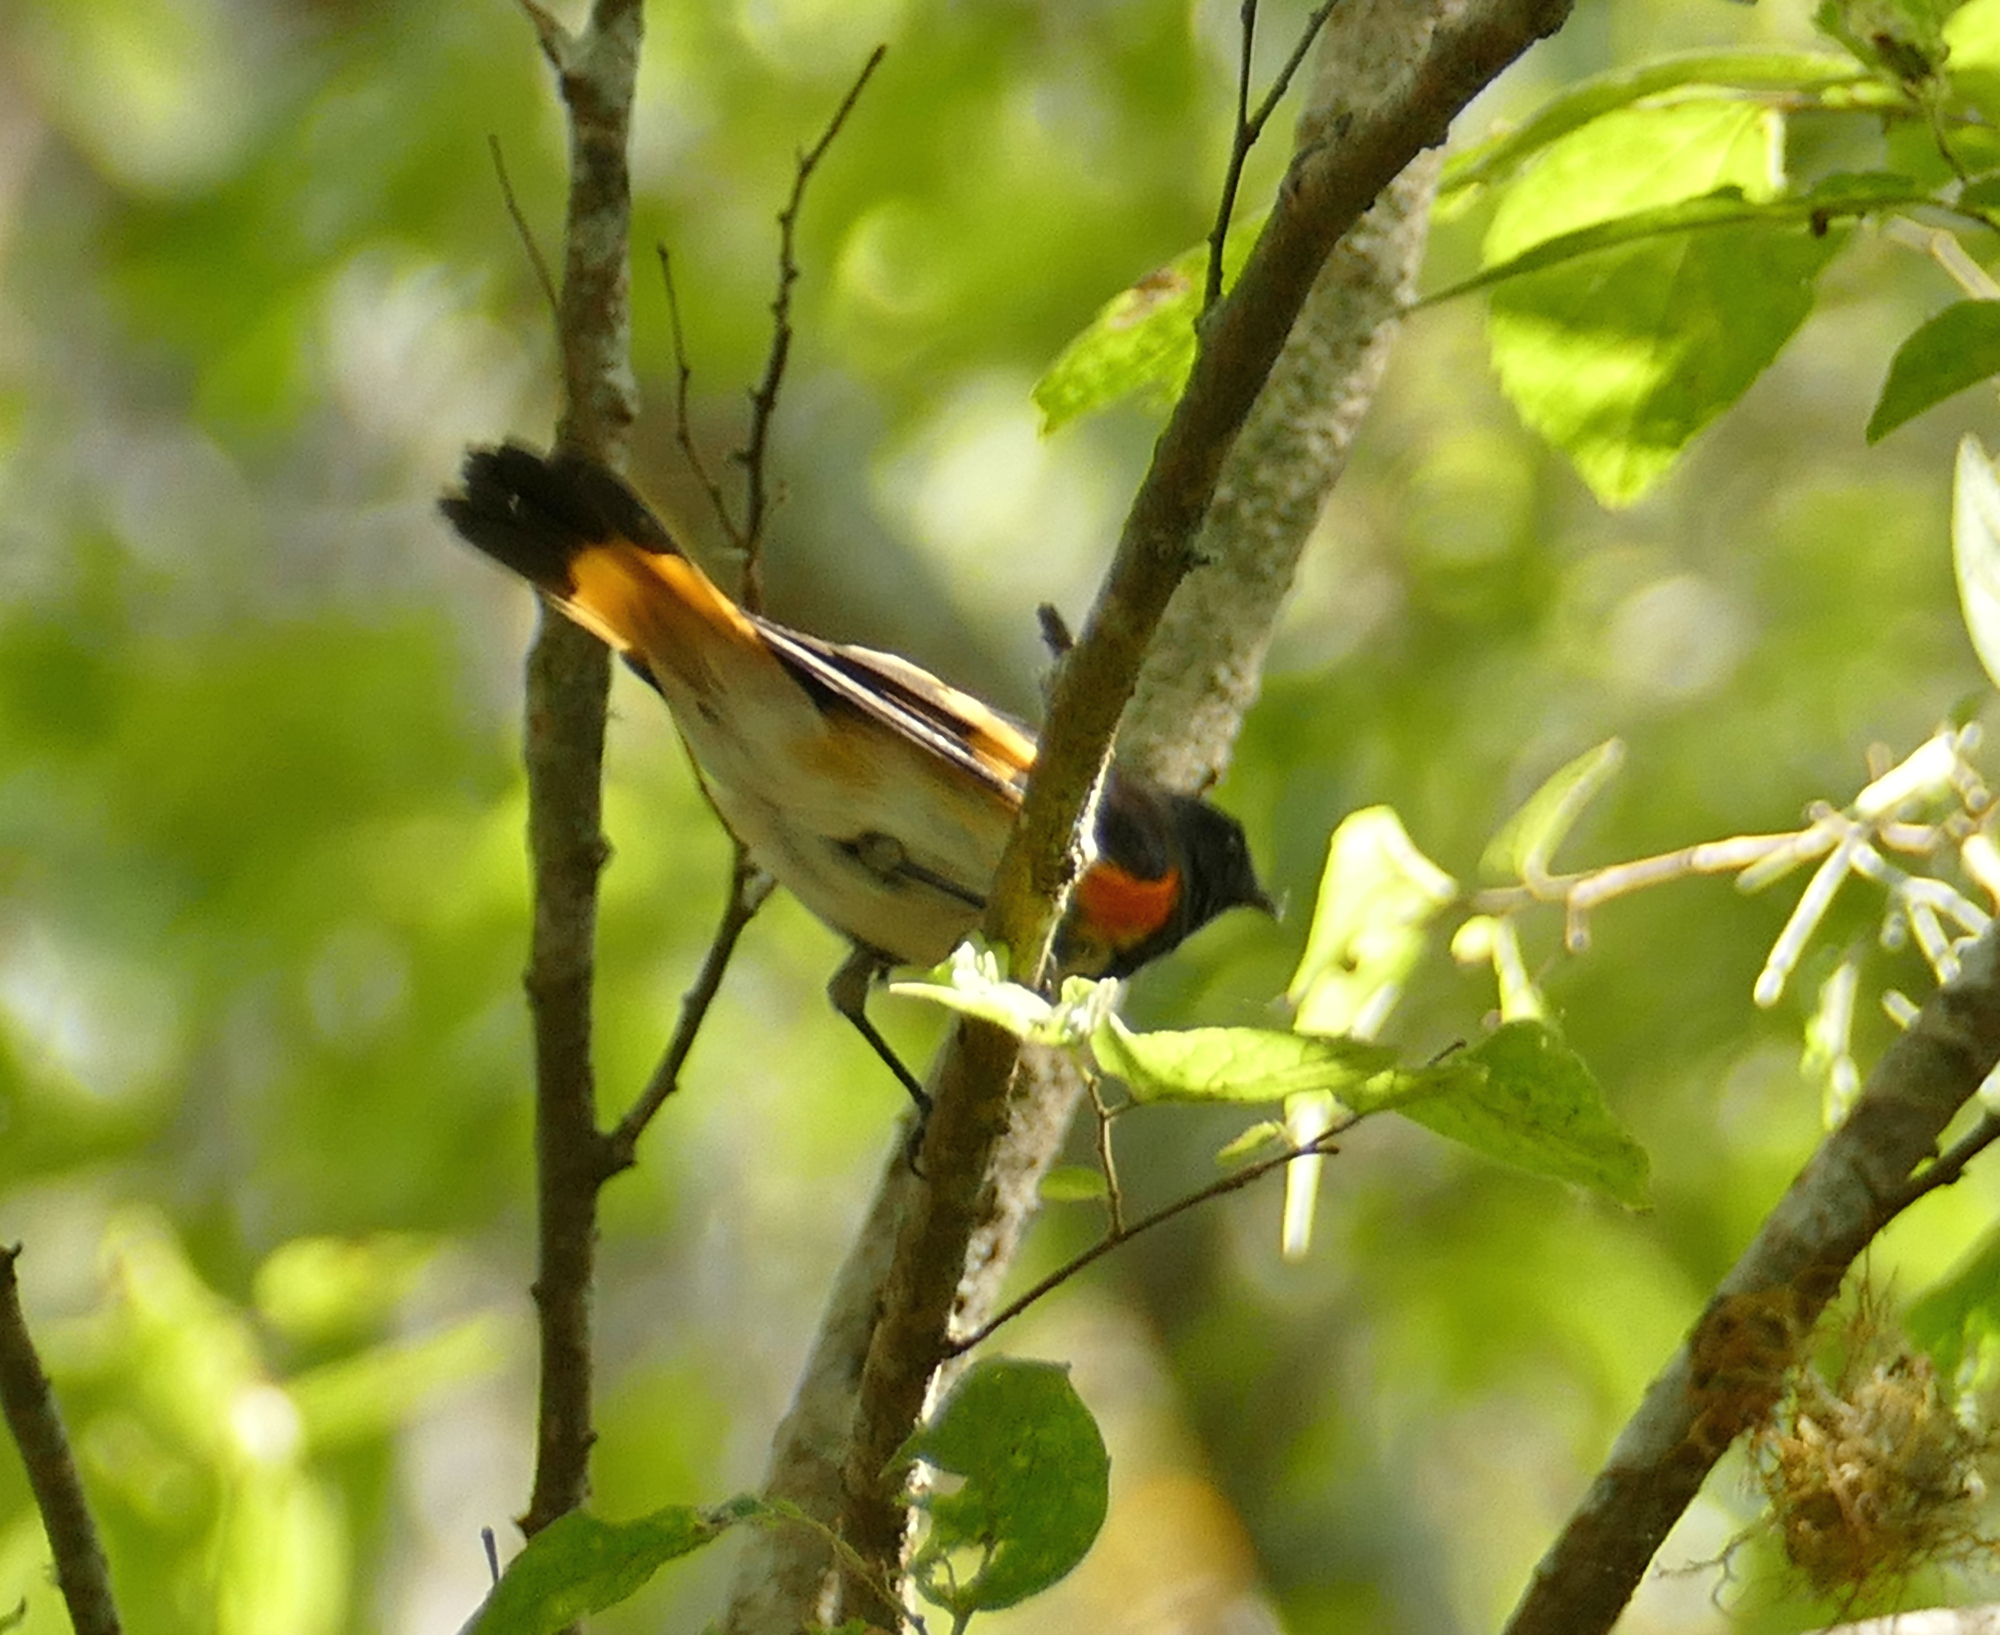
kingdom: Animalia
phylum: Chordata
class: Aves
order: Passeriformes
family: Parulidae
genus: Setophaga
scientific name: Setophaga ruticilla
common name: American redstart
